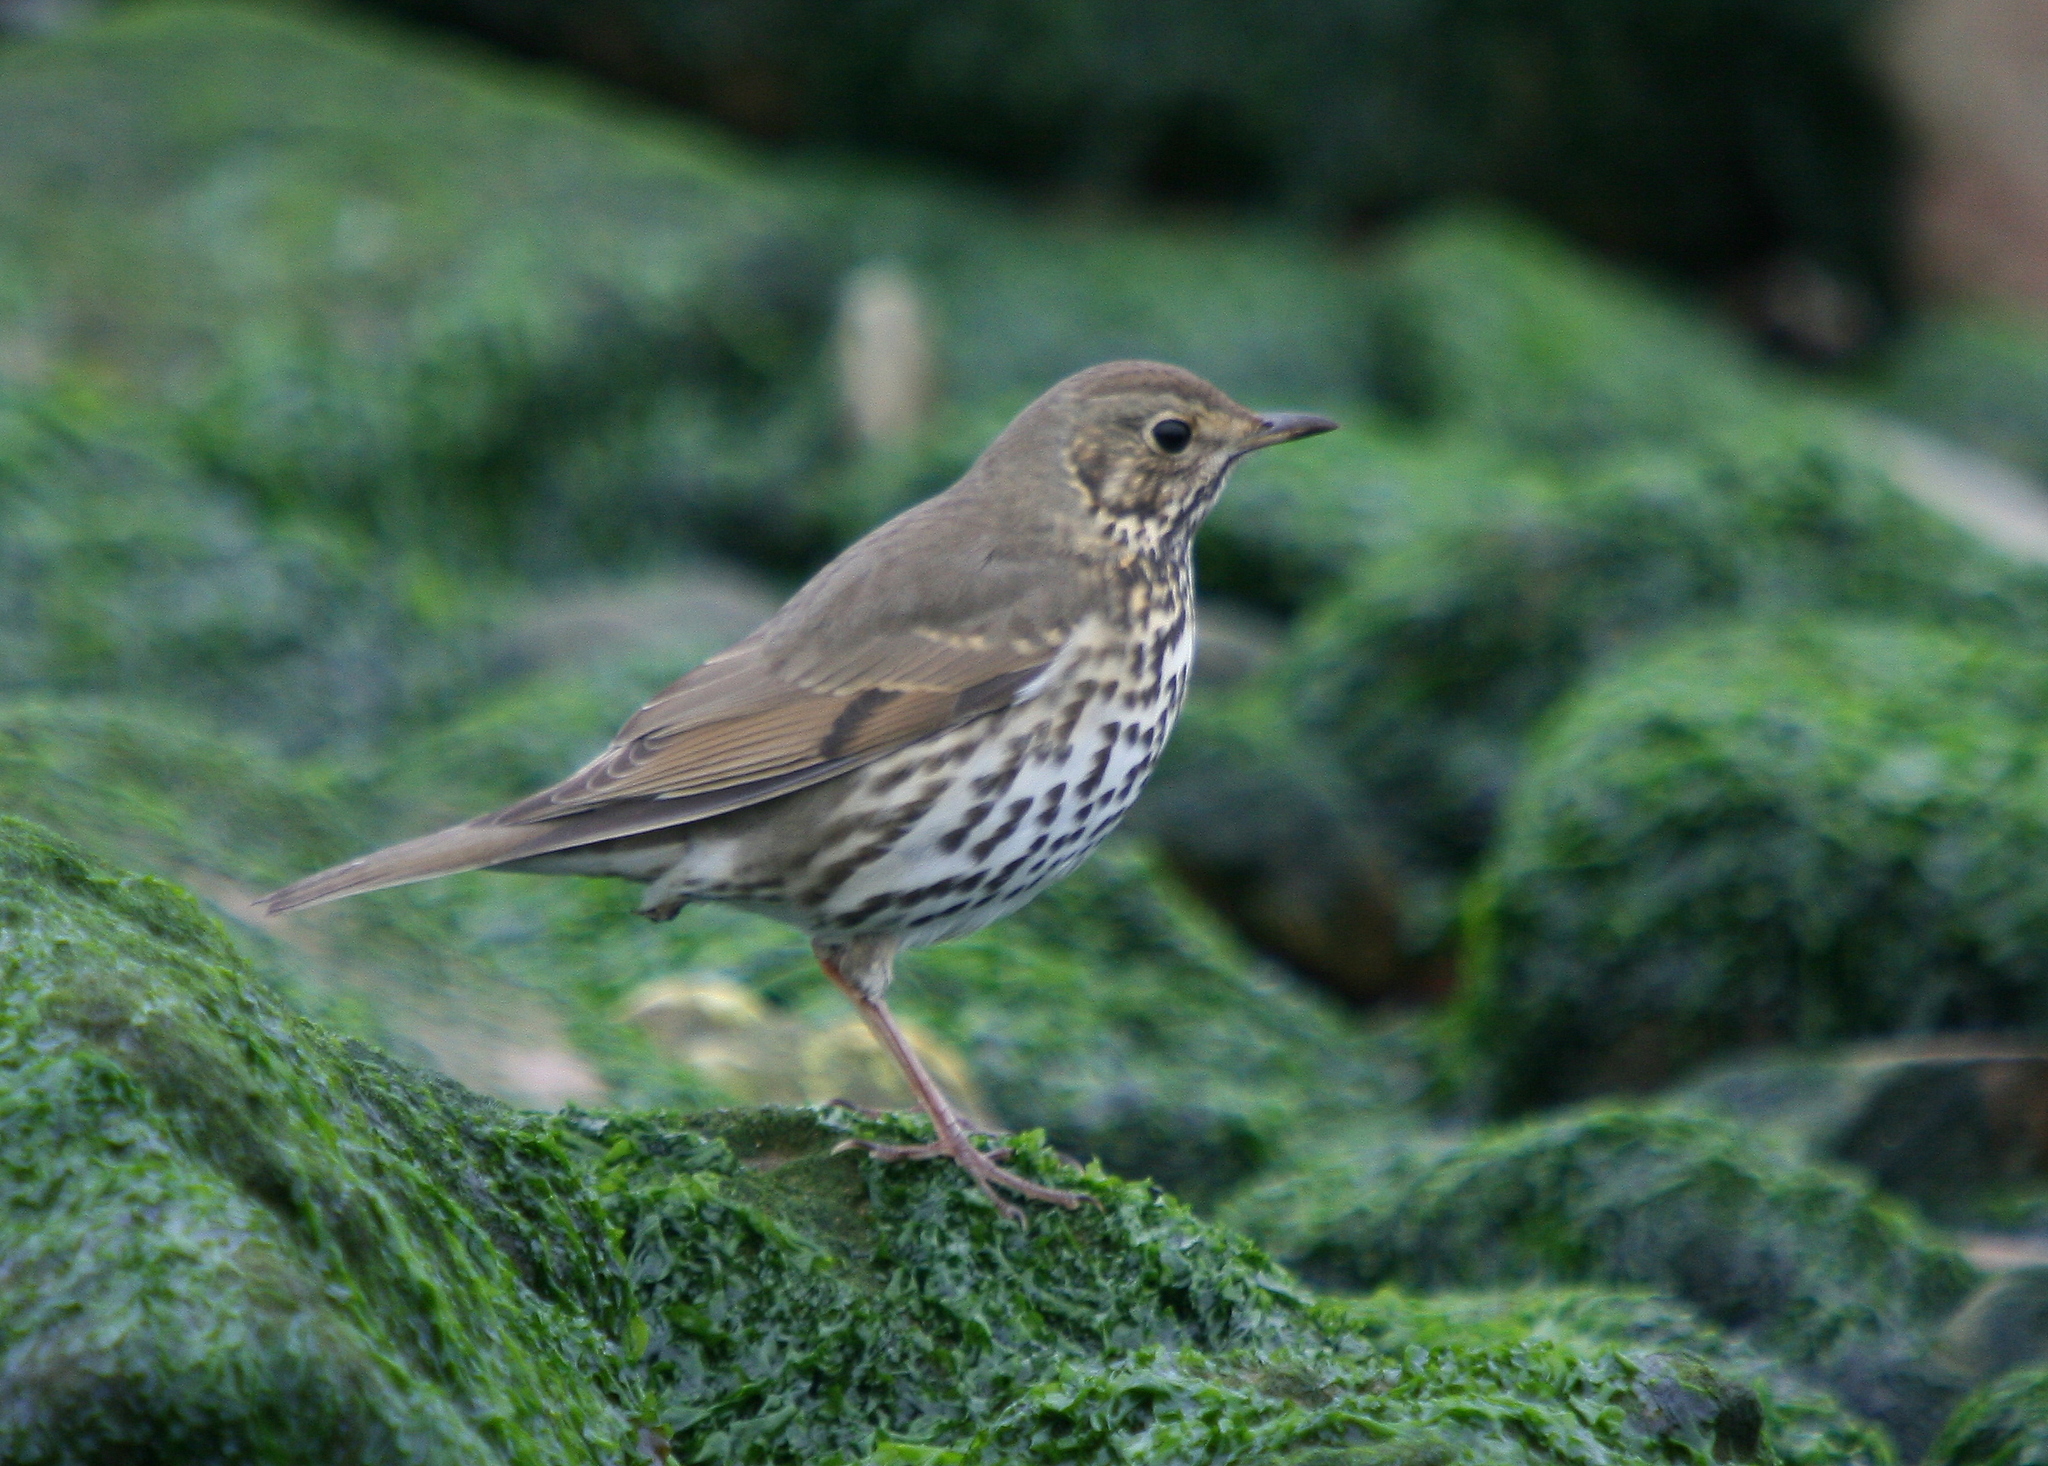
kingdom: Animalia
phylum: Chordata
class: Aves
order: Passeriformes
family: Turdidae
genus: Turdus
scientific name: Turdus philomelos
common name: Song thrush
